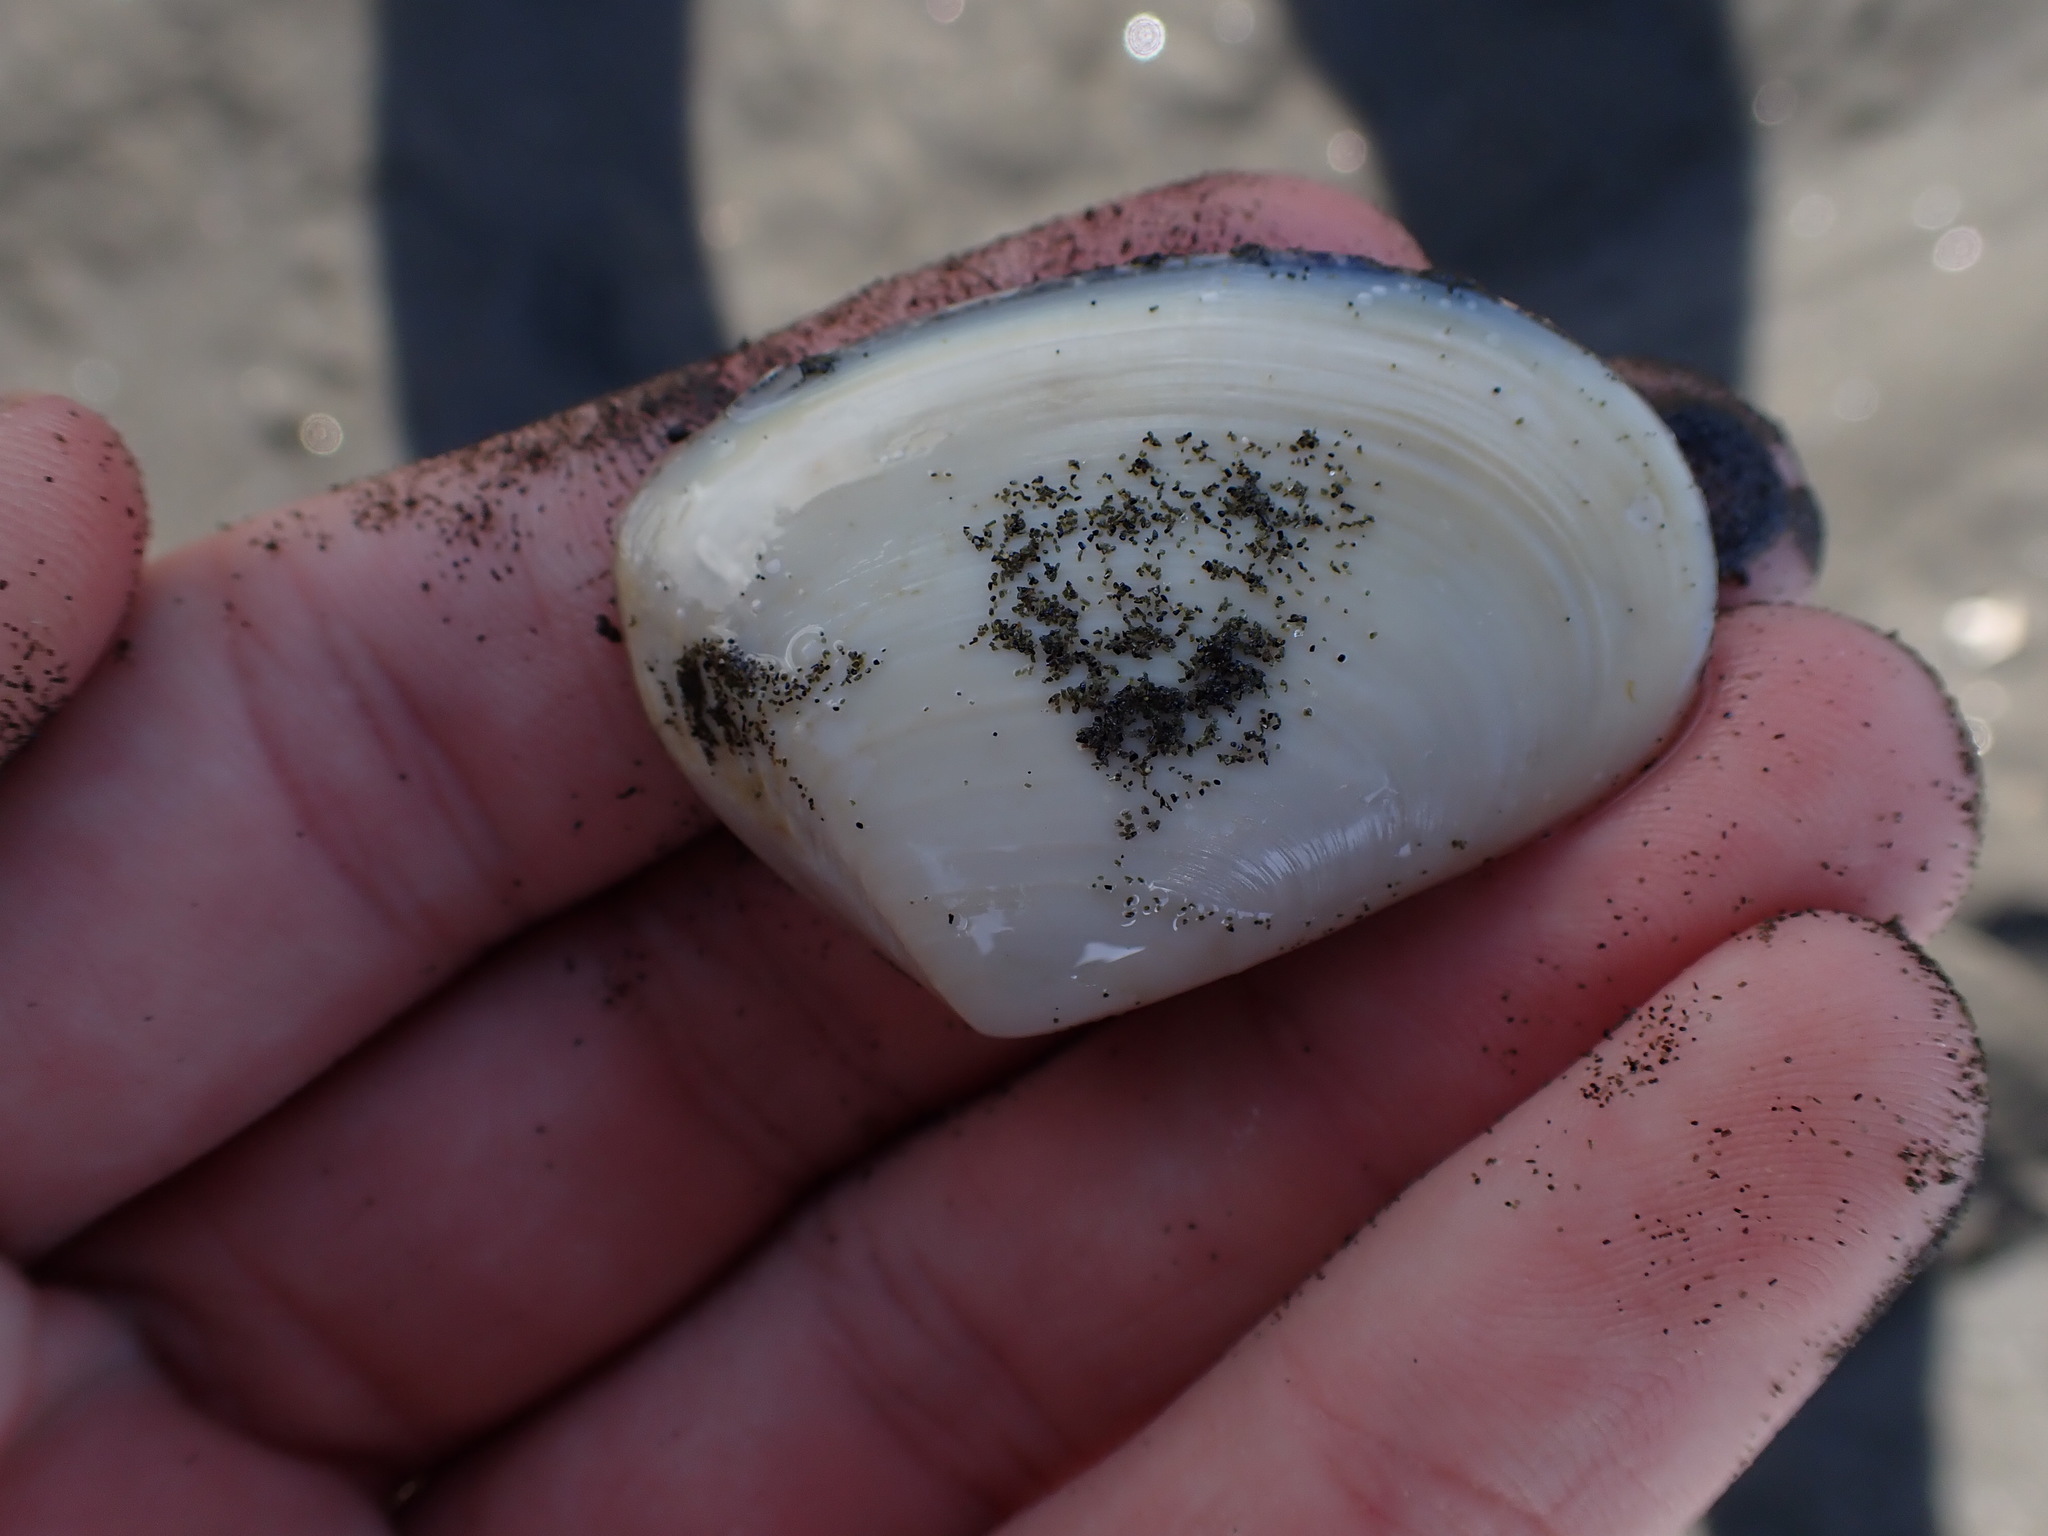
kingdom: Animalia
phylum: Mollusca
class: Bivalvia
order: Venerida
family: Mesodesmatidae
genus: Paphies
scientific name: Paphies subtriangulata
